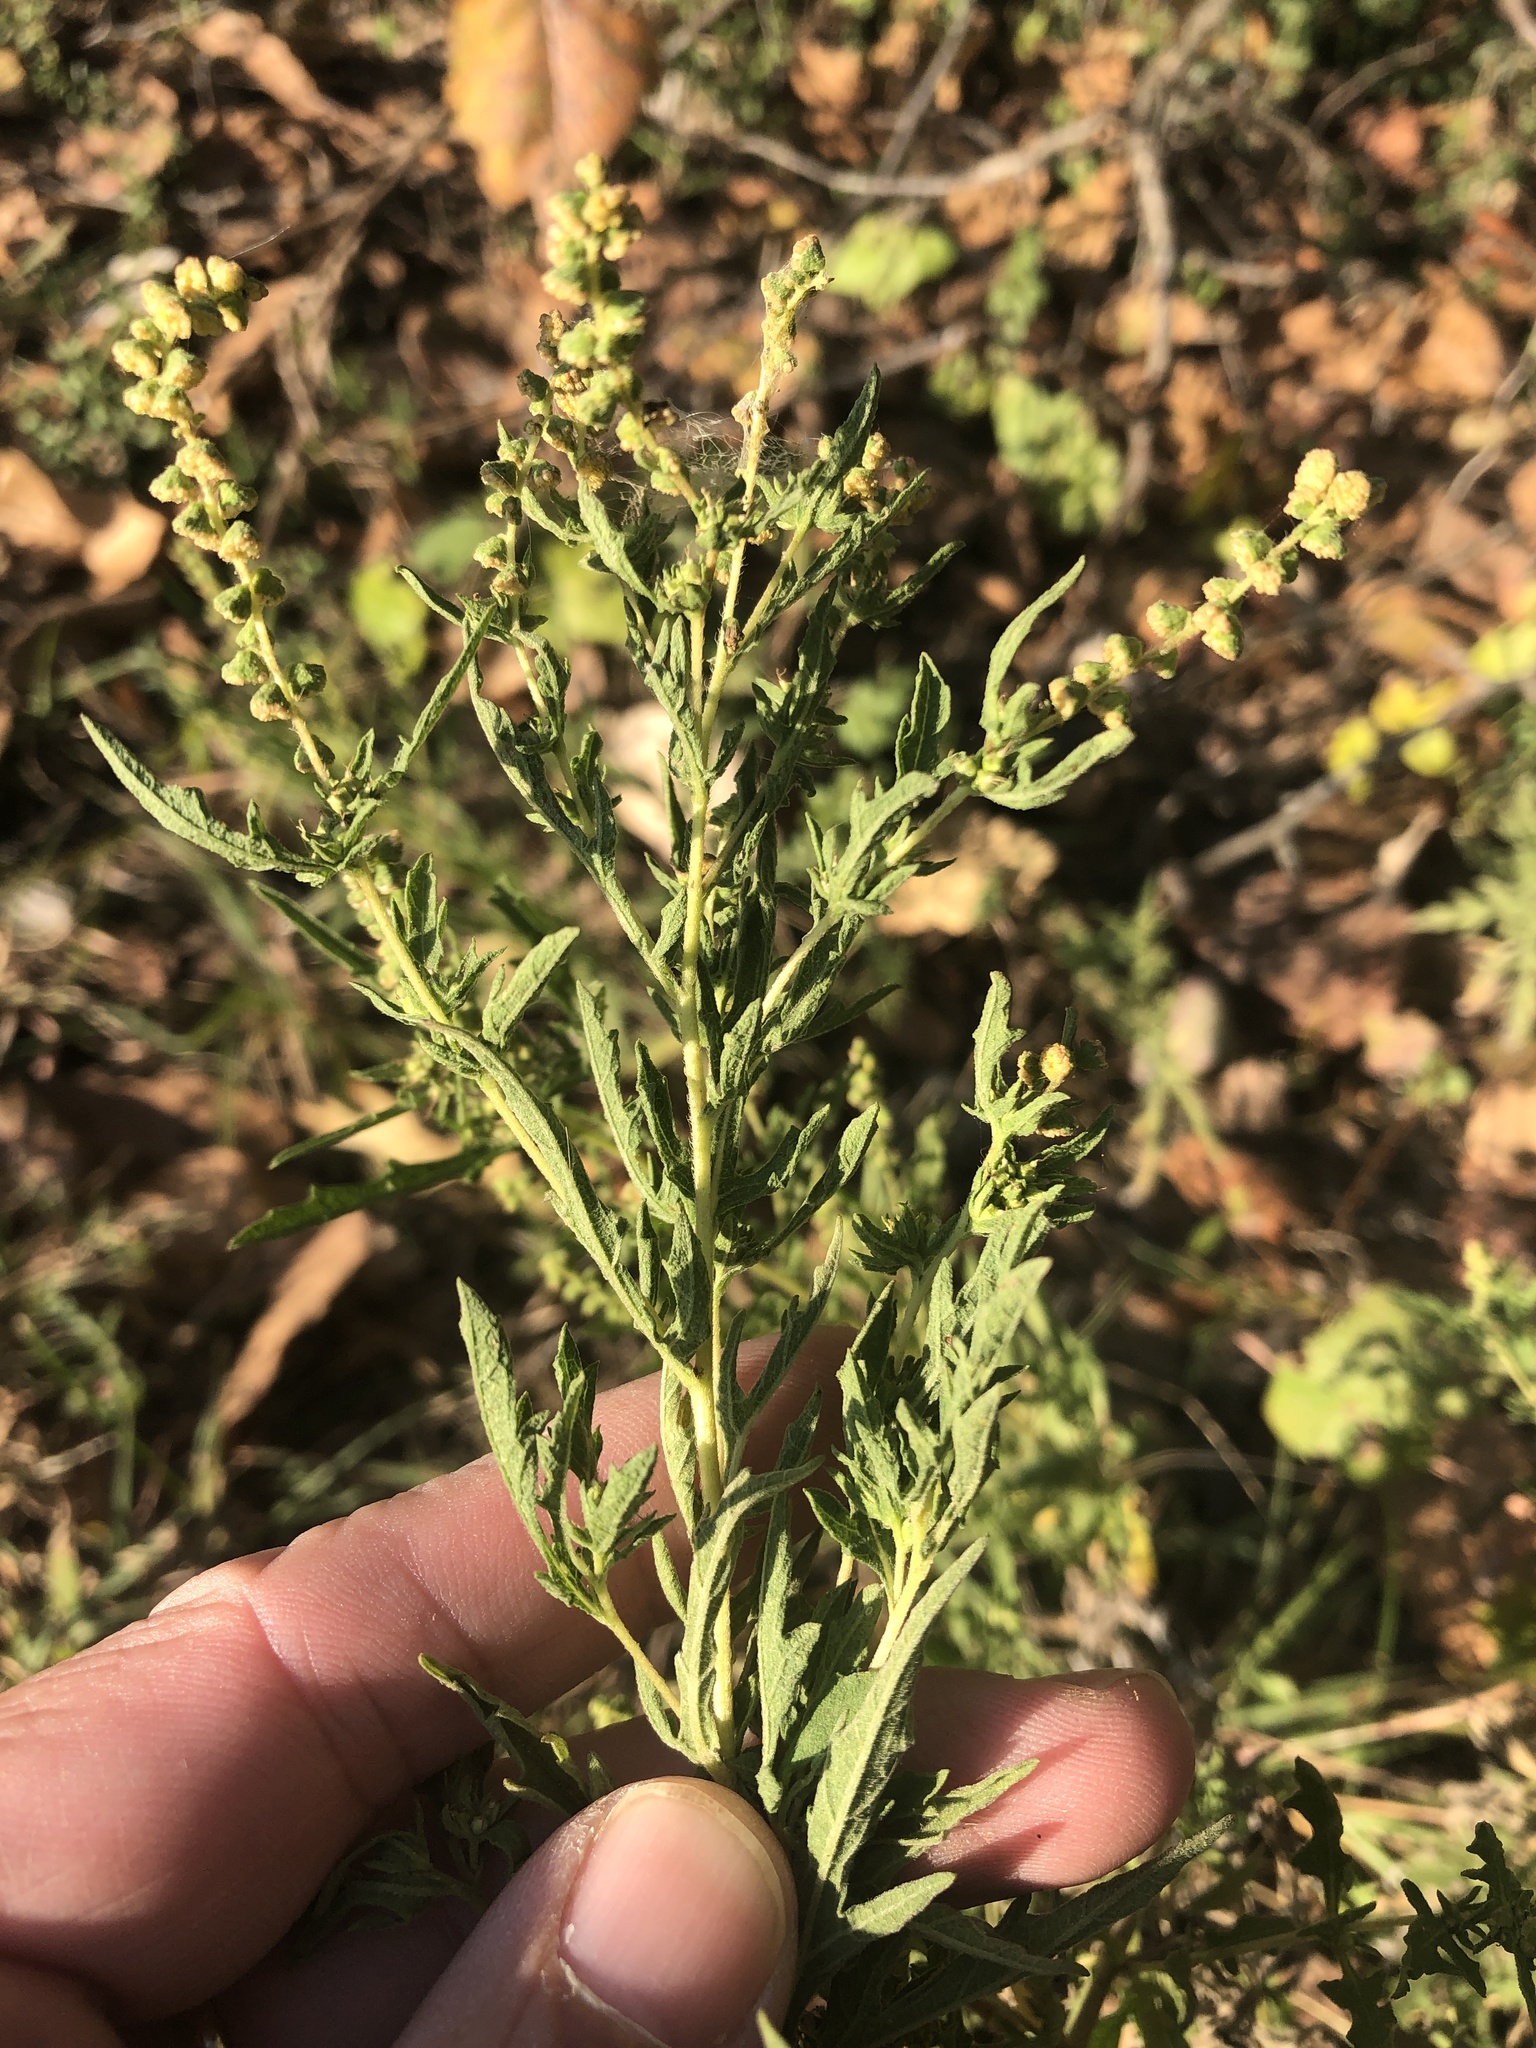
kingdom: Plantae
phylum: Tracheophyta
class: Magnoliopsida
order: Asterales
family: Asteraceae
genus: Ambrosia
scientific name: Ambrosia psilostachya
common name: Perennial ragweed
